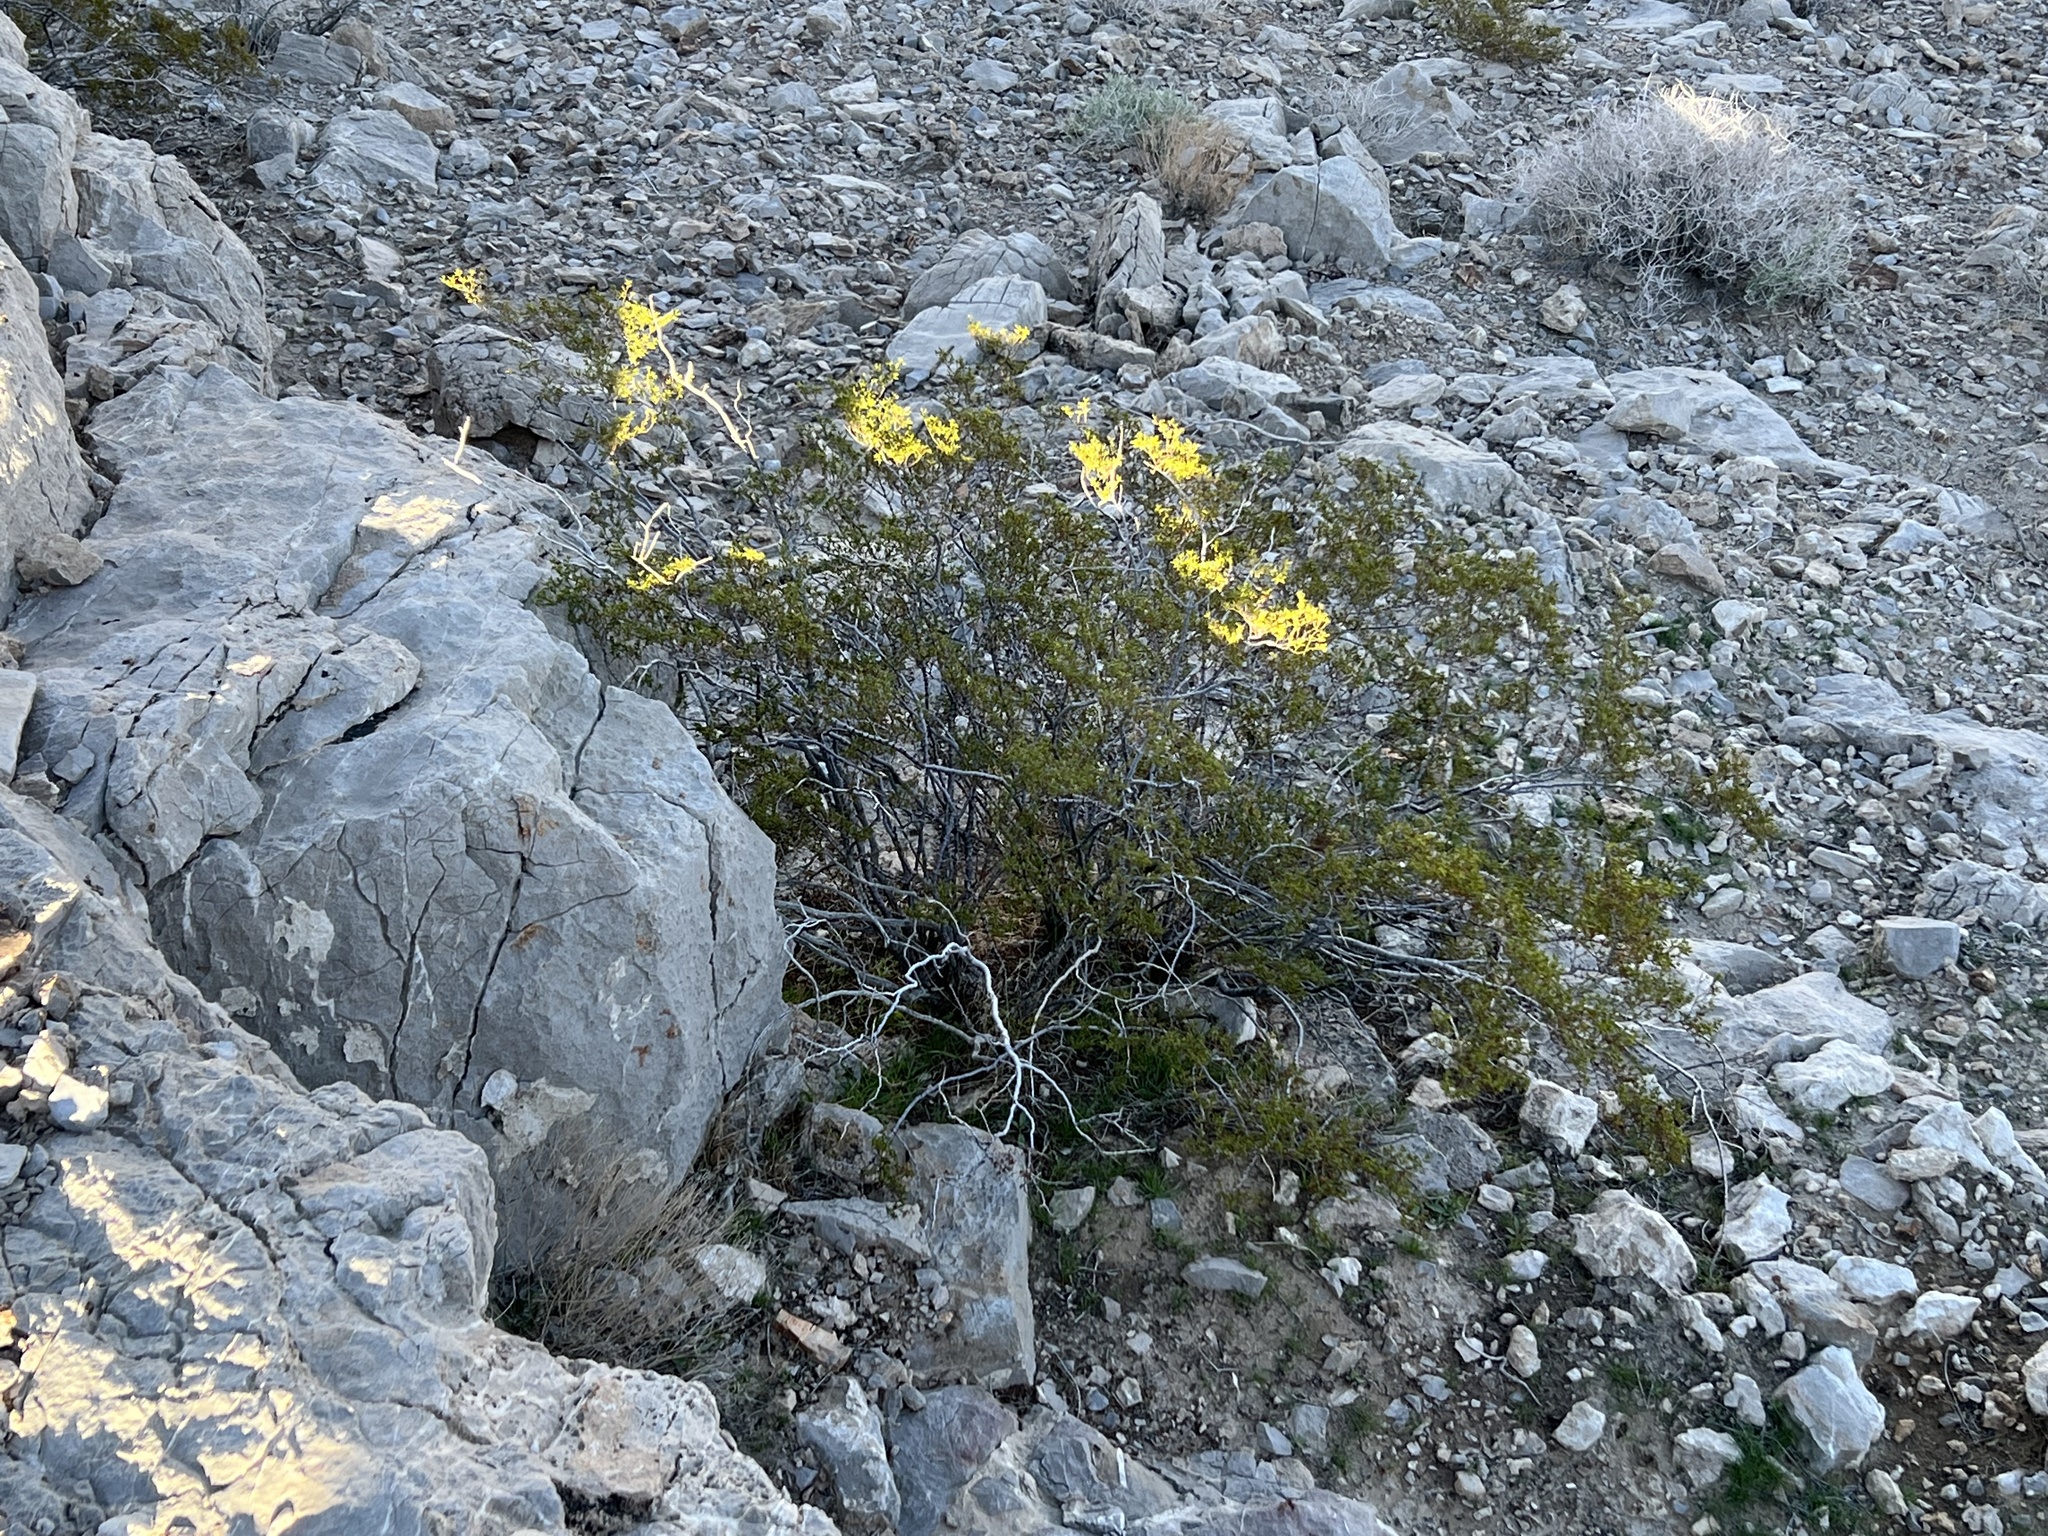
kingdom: Plantae
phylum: Tracheophyta
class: Magnoliopsida
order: Zygophyllales
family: Zygophyllaceae
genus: Larrea
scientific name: Larrea tridentata
